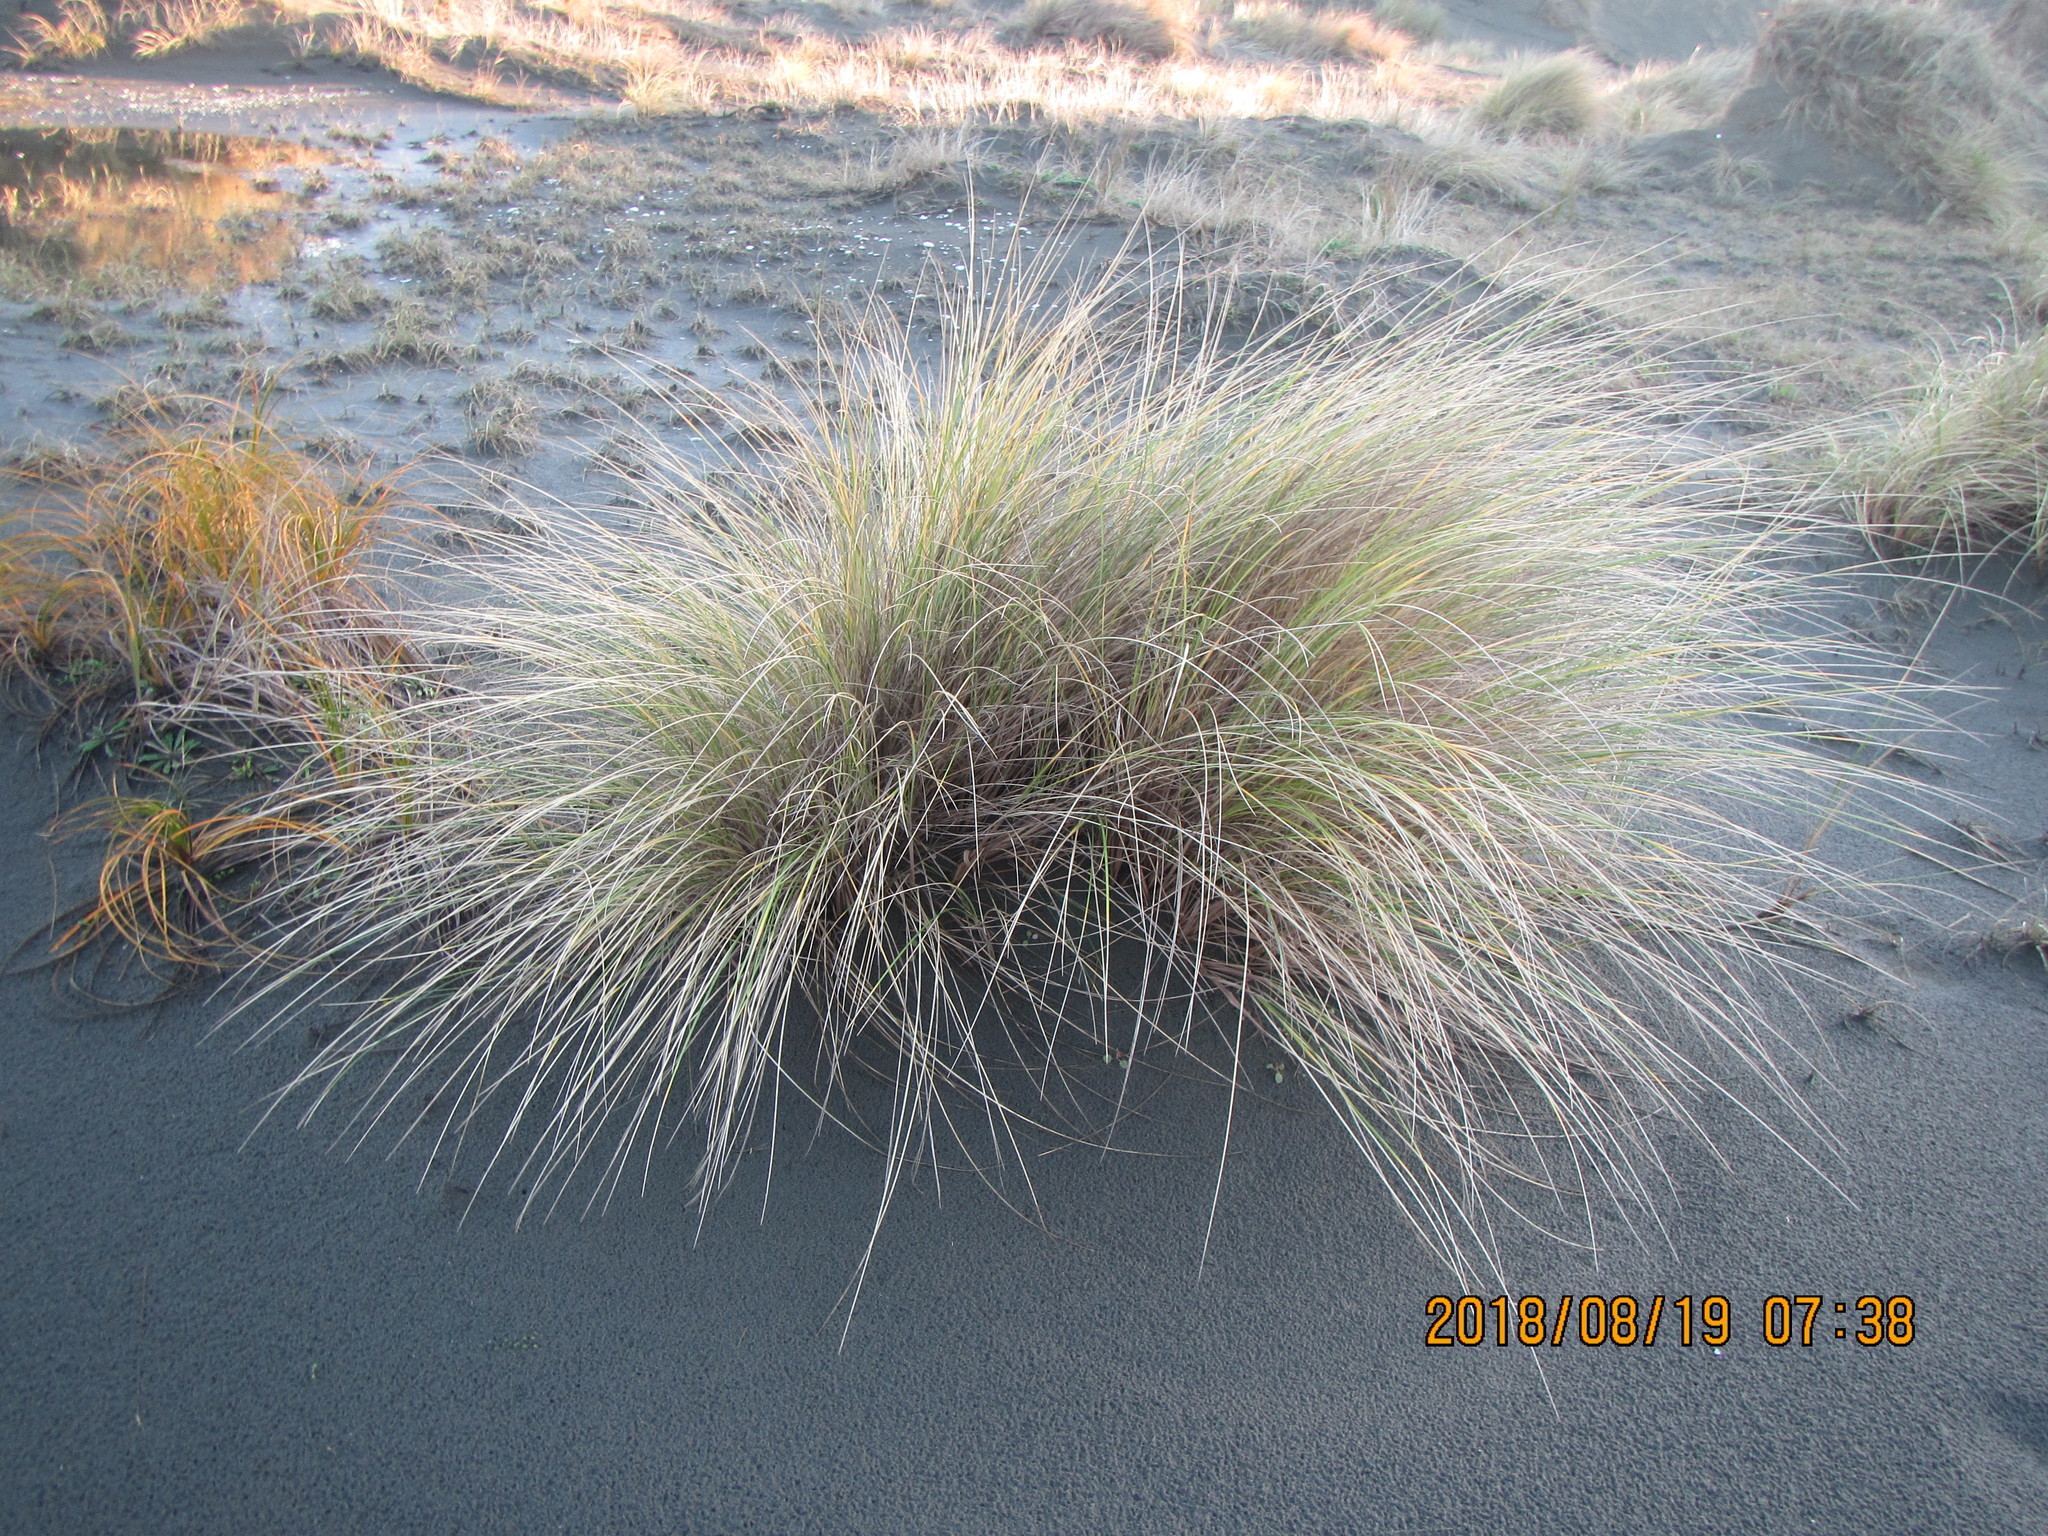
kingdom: Plantae
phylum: Tracheophyta
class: Liliopsida
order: Poales
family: Poaceae
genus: Calamagrostis
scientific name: Calamagrostis arenaria
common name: European beachgrass
